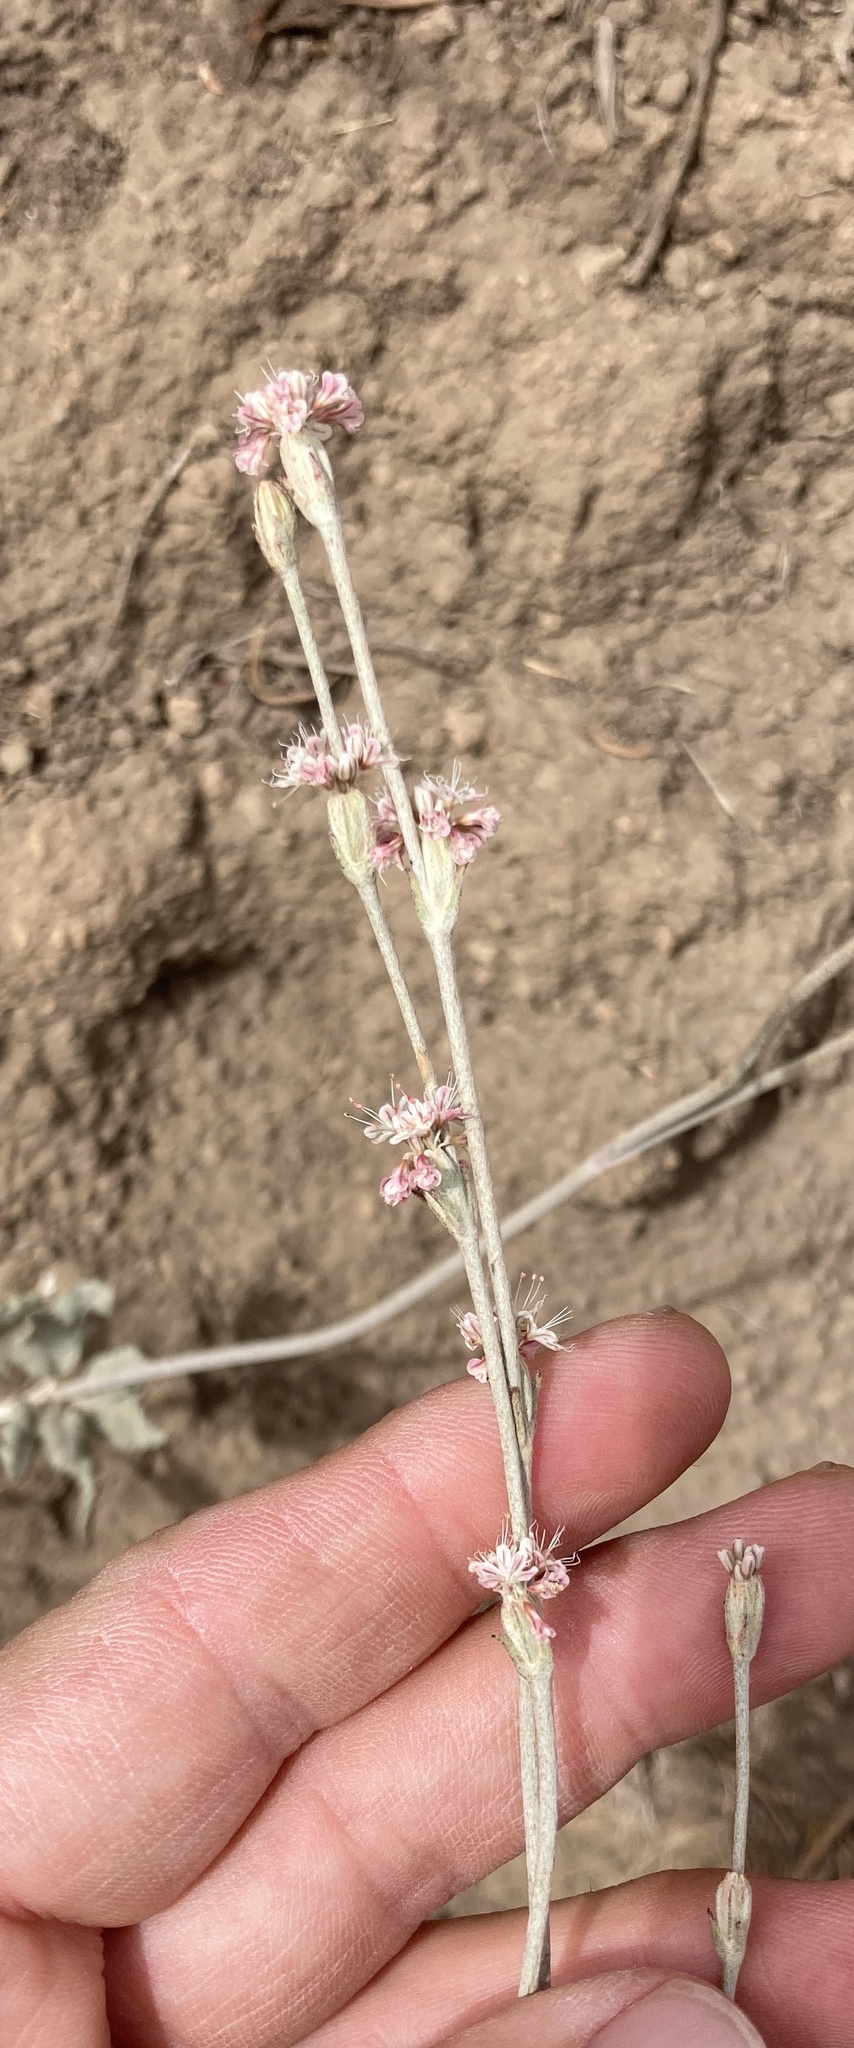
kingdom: Plantae
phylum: Tracheophyta
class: Magnoliopsida
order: Caryophyllales
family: Polygonaceae
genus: Eriogonum
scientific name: Eriogonum elongatum
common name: Long-stem wild buckwheat
